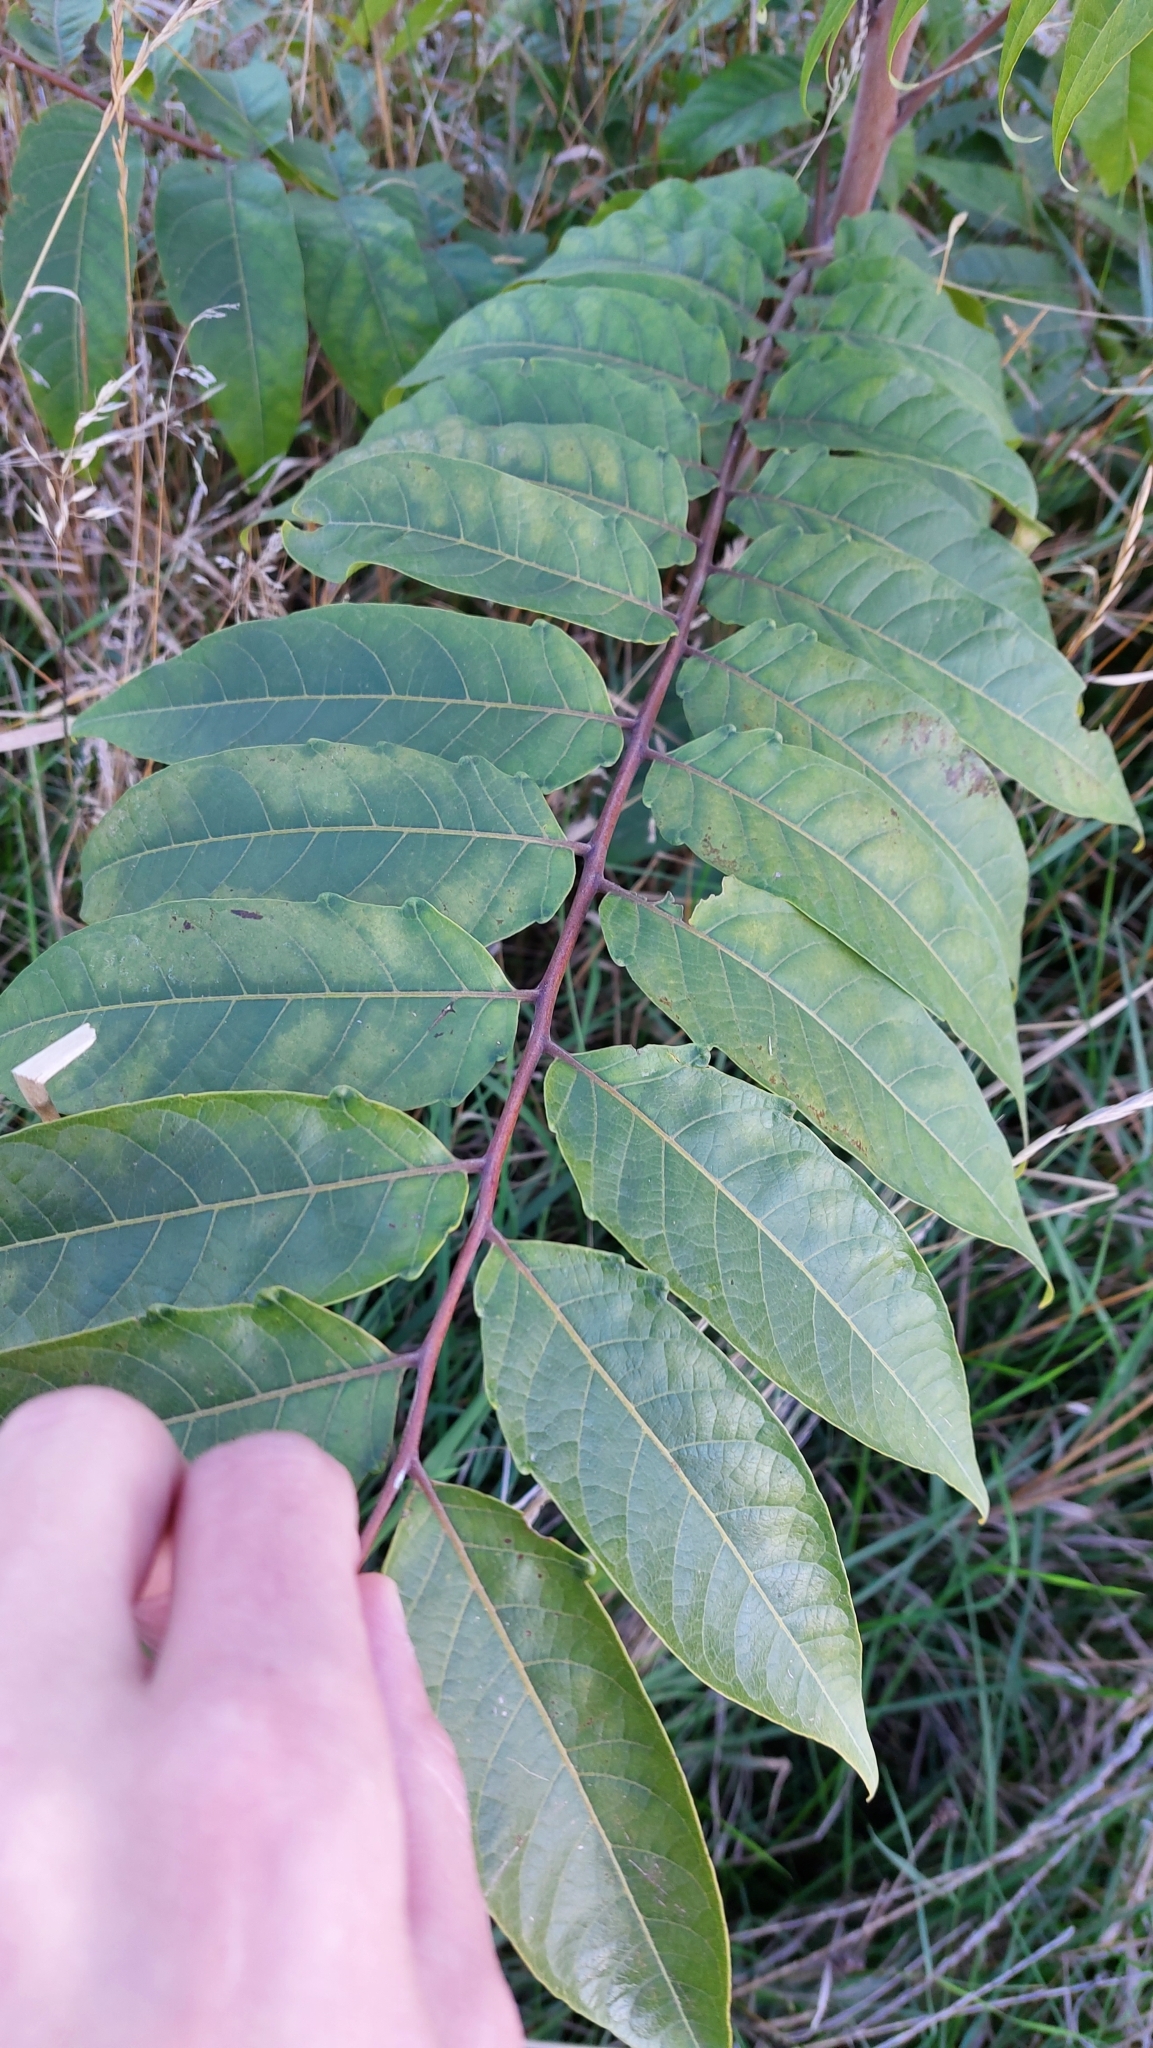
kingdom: Plantae
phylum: Tracheophyta
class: Magnoliopsida
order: Sapindales
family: Simaroubaceae
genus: Ailanthus
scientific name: Ailanthus altissima
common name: Tree-of-heaven
